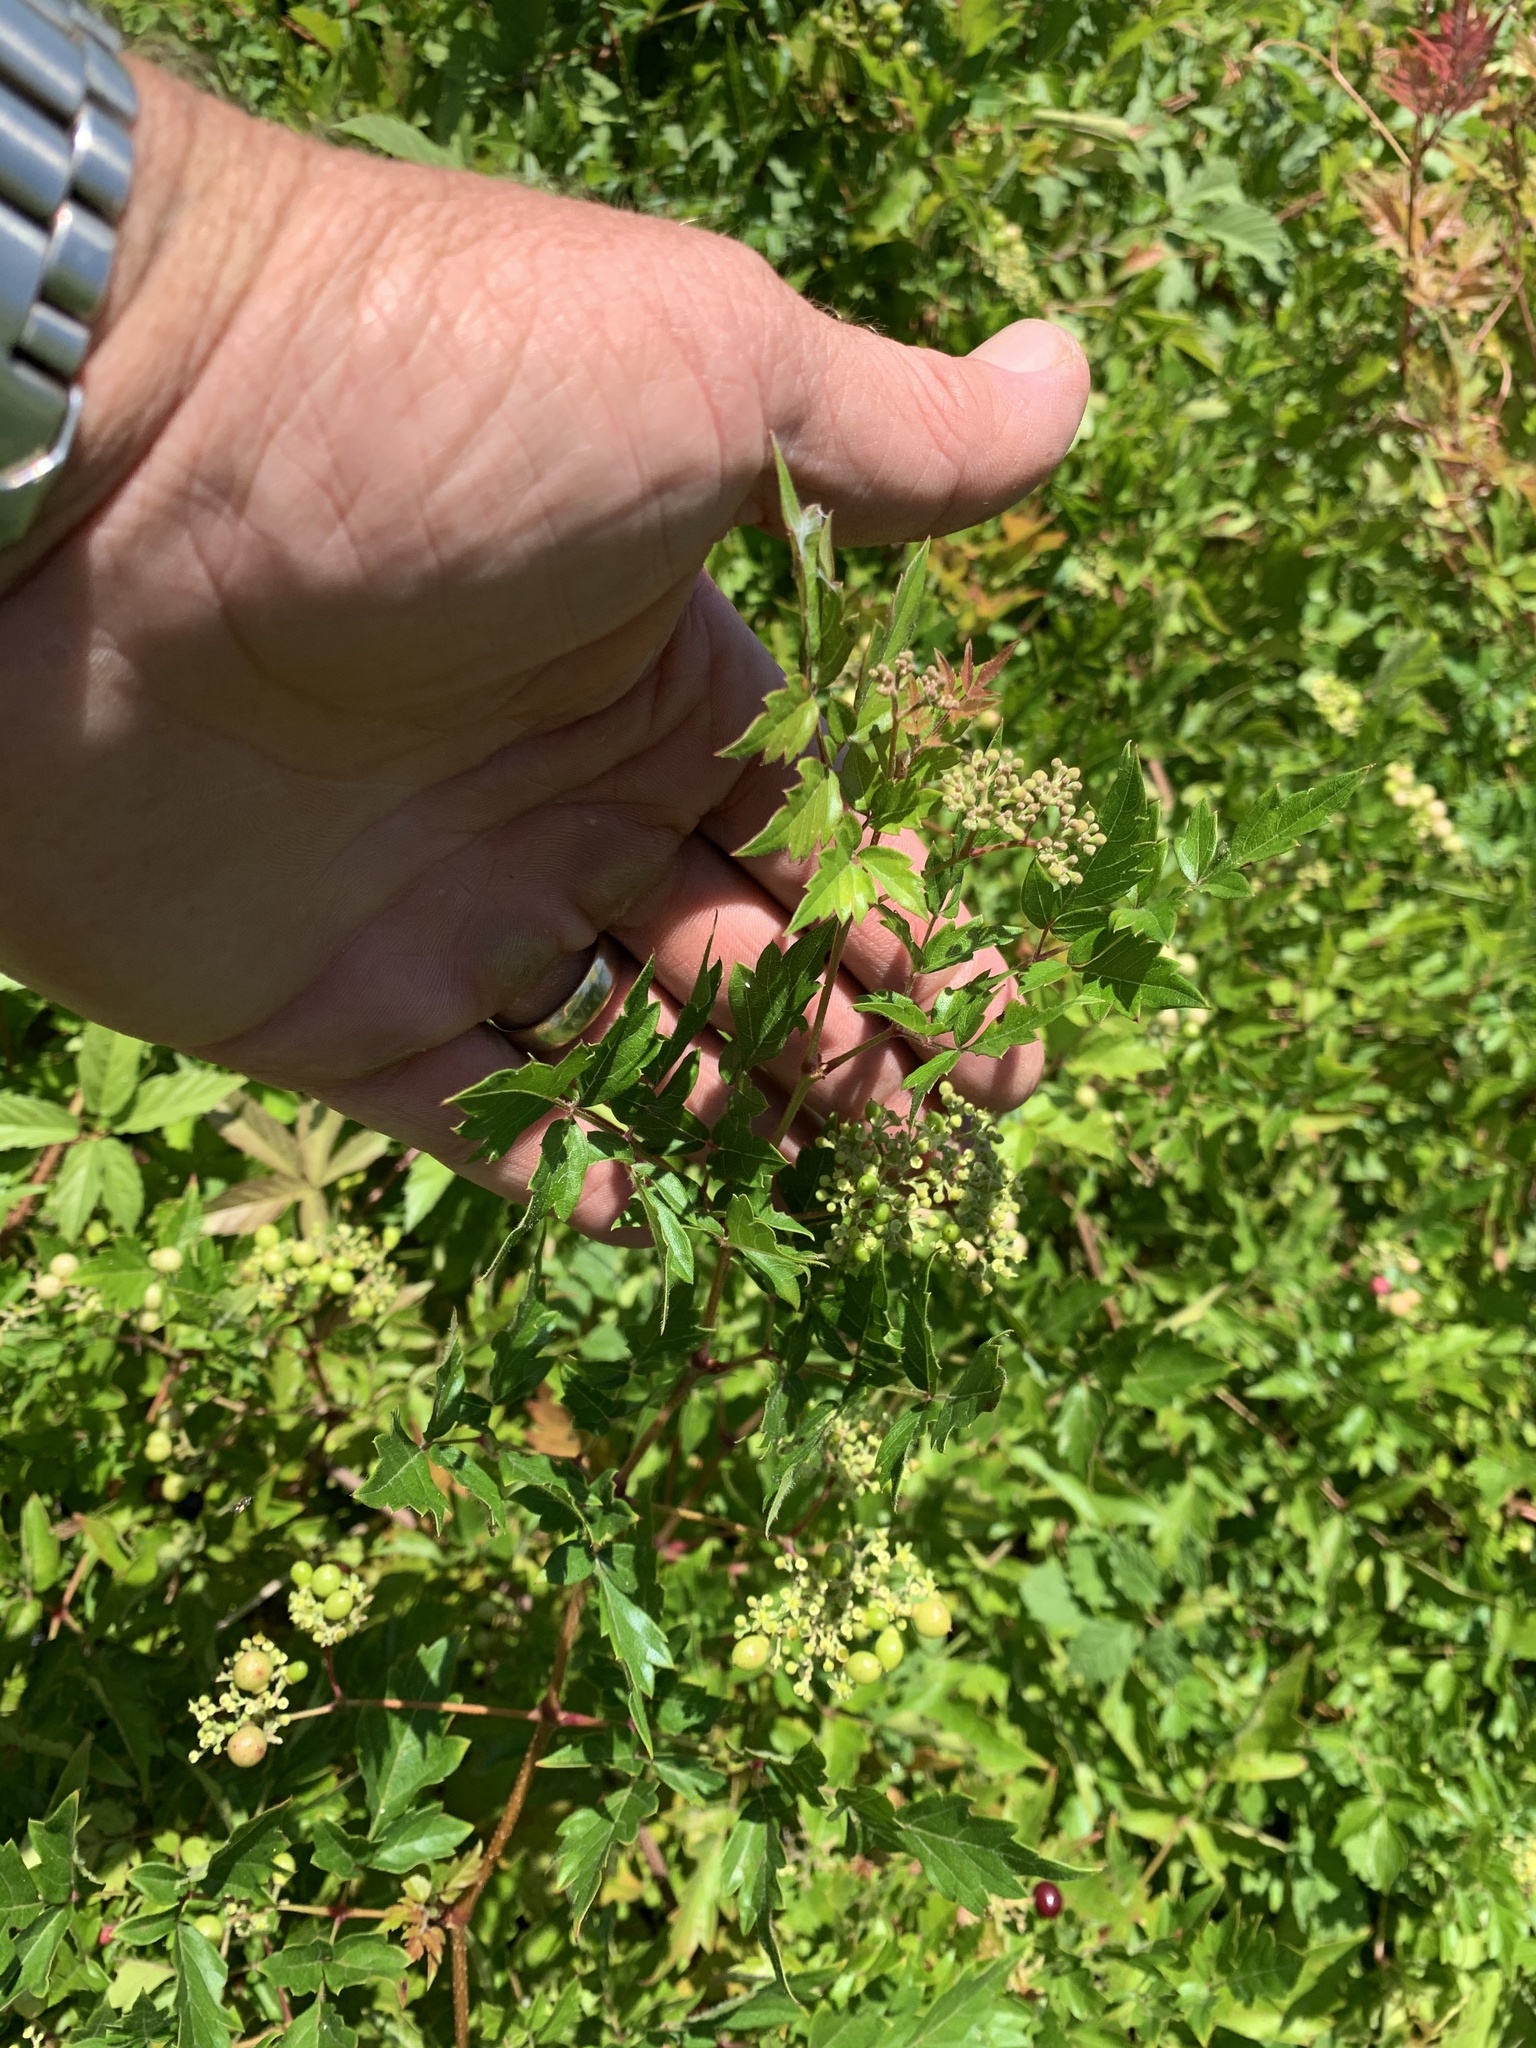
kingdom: Plantae
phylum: Tracheophyta
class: Magnoliopsida
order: Vitales
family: Vitaceae
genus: Nekemias
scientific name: Nekemias arborea
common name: Peppervine
